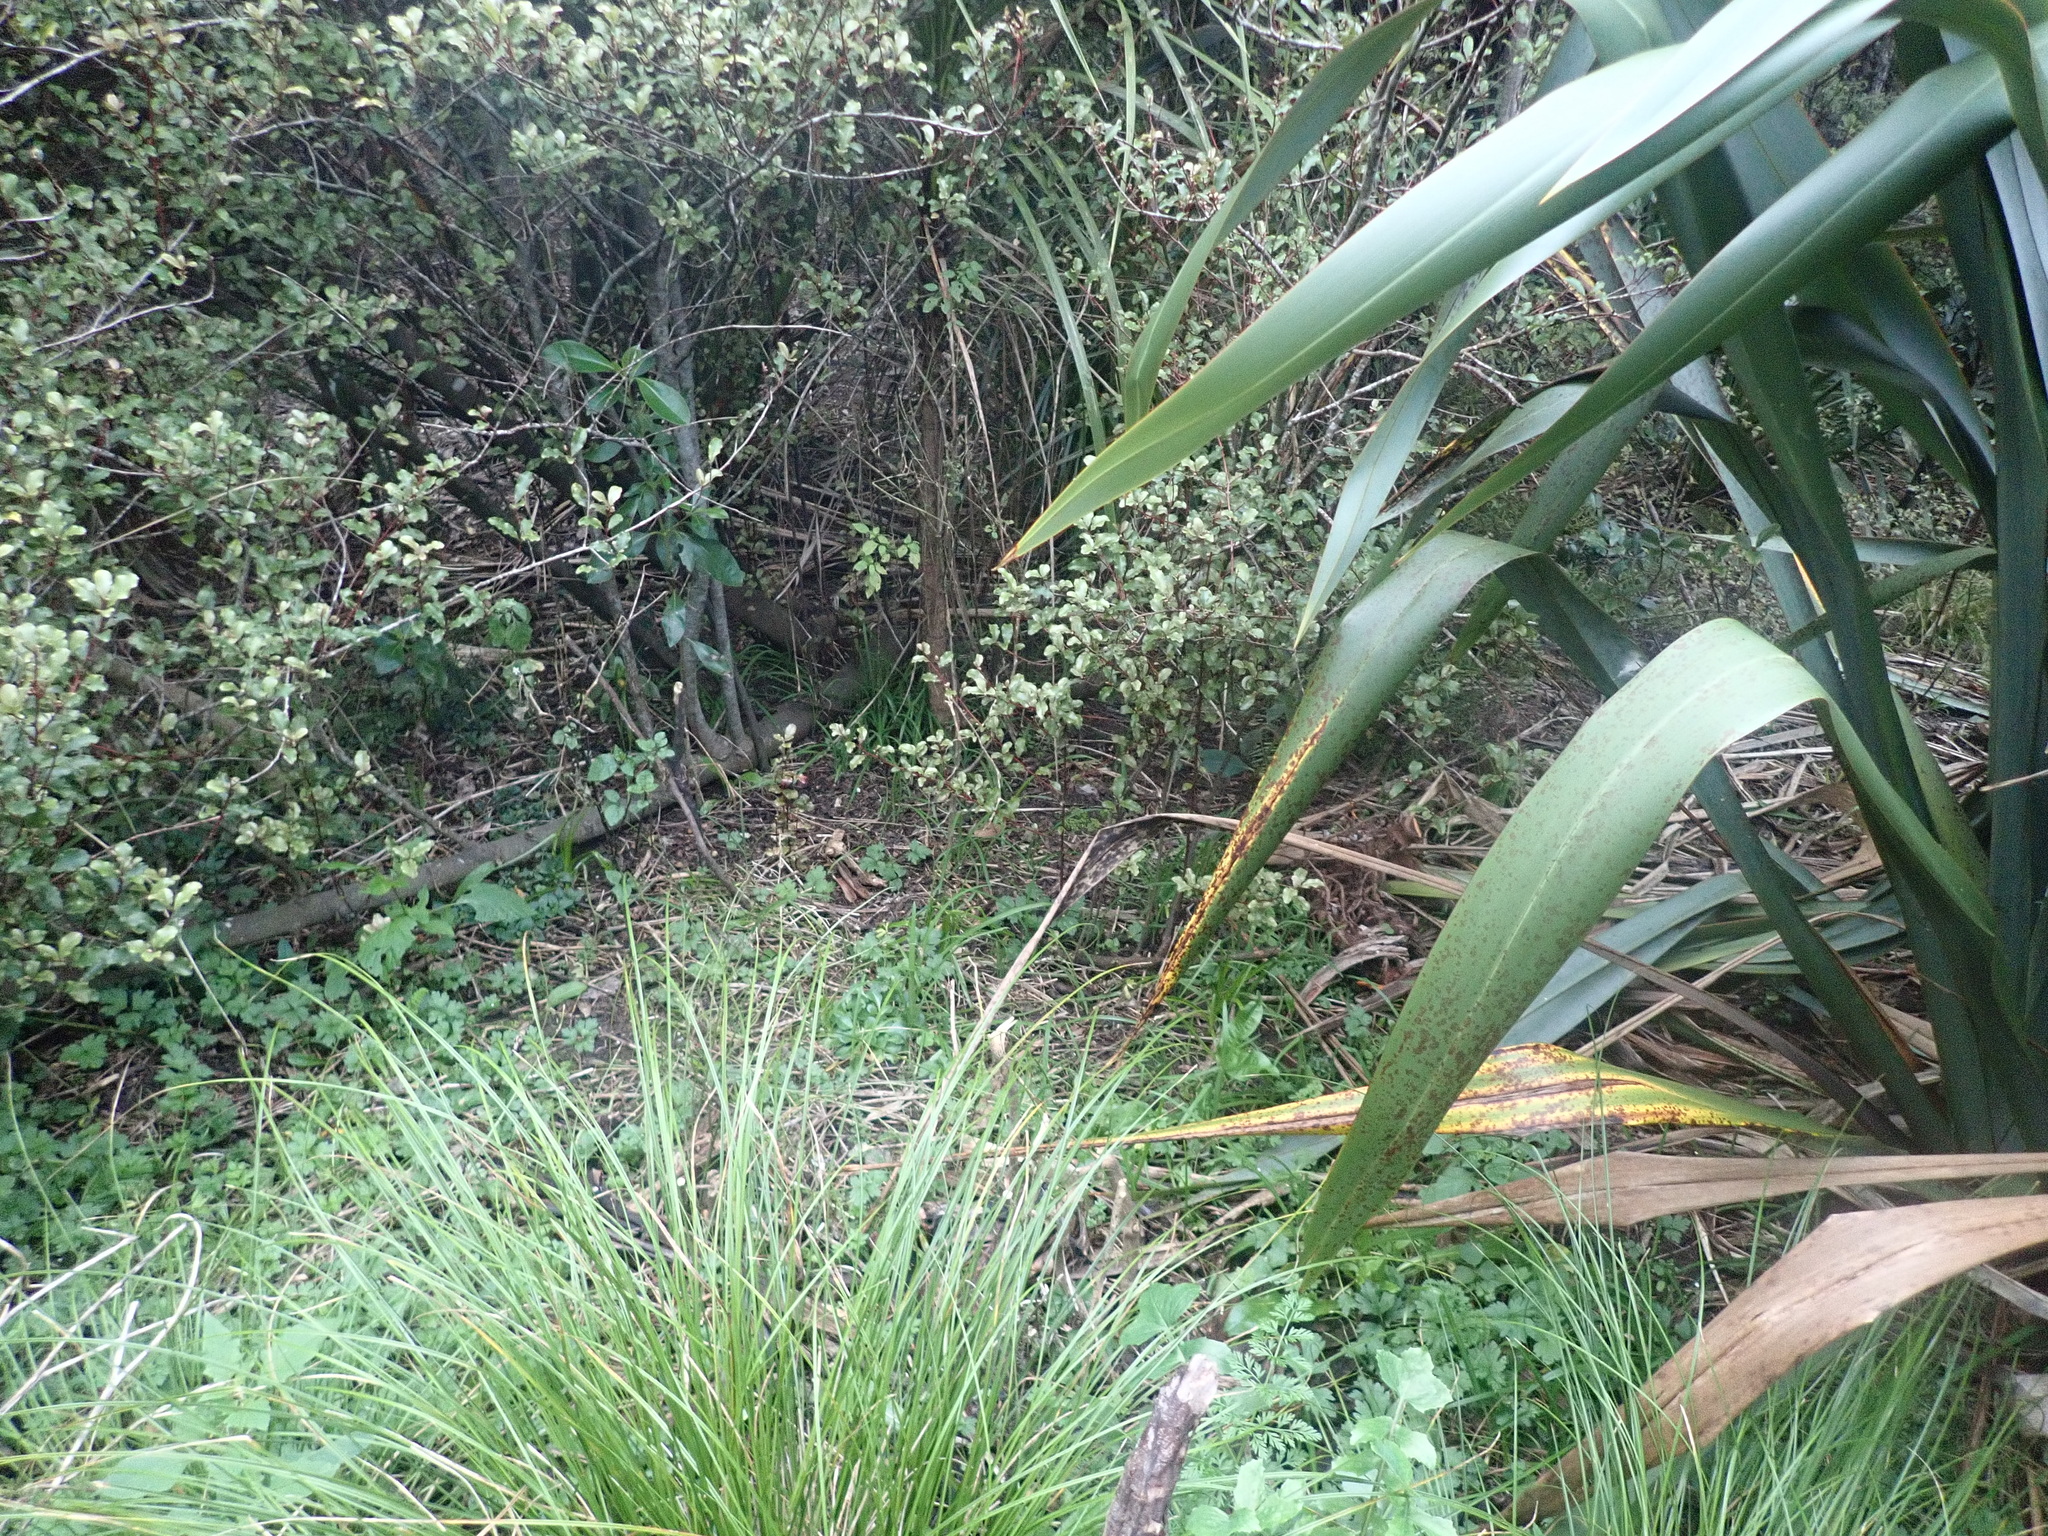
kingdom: Plantae
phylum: Tracheophyta
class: Magnoliopsida
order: Ericales
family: Primulaceae
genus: Myrsine
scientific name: Myrsine australis
